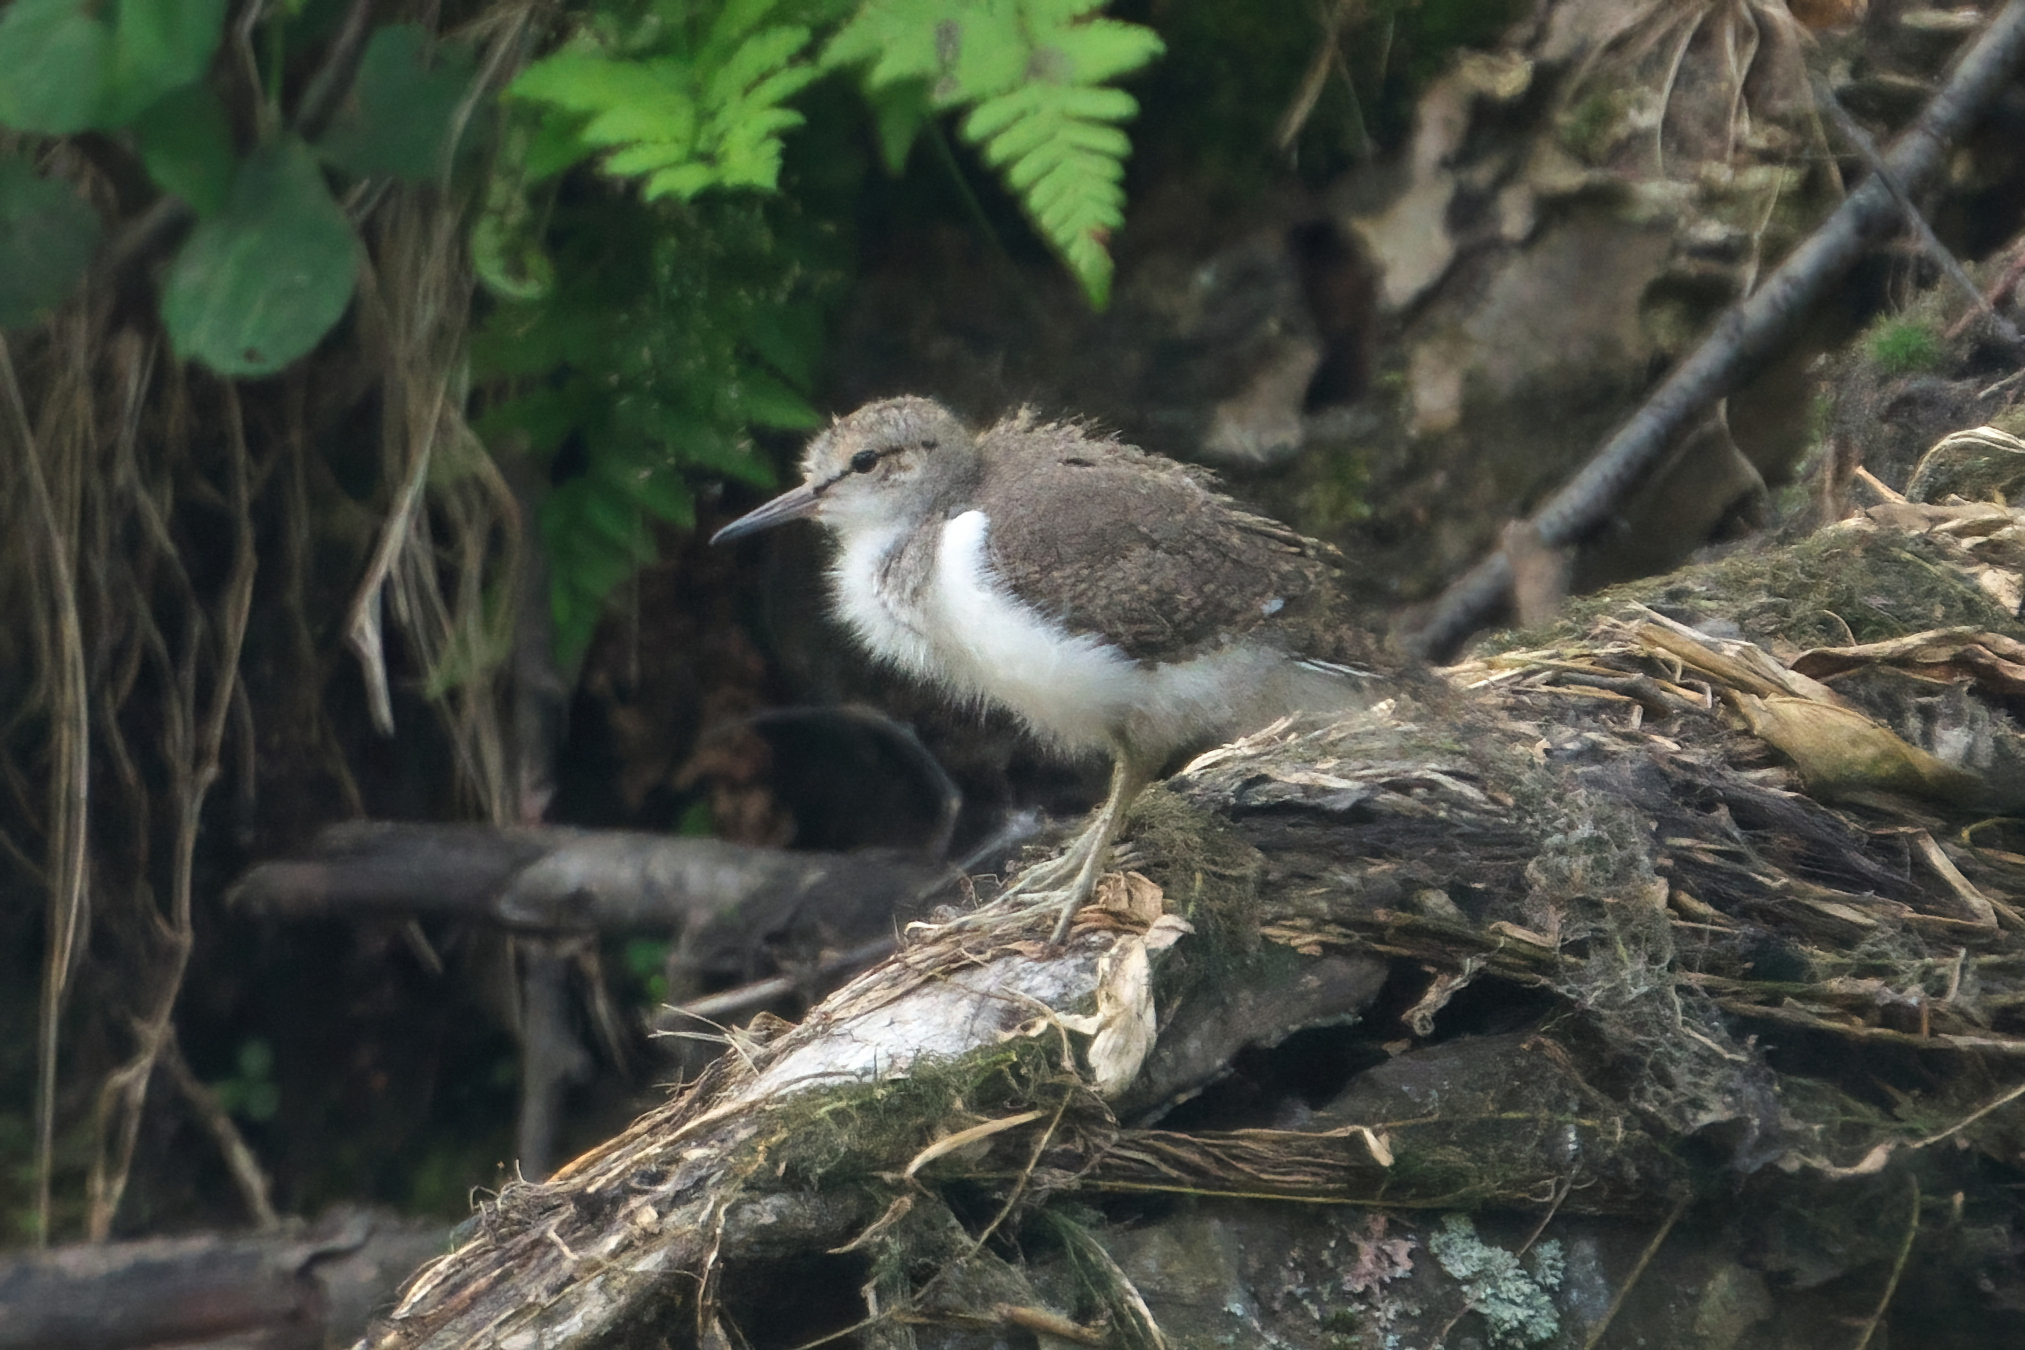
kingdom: Animalia
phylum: Chordata
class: Aves
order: Charadriiformes
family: Scolopacidae
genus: Actitis
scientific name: Actitis hypoleucos
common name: Common sandpiper
